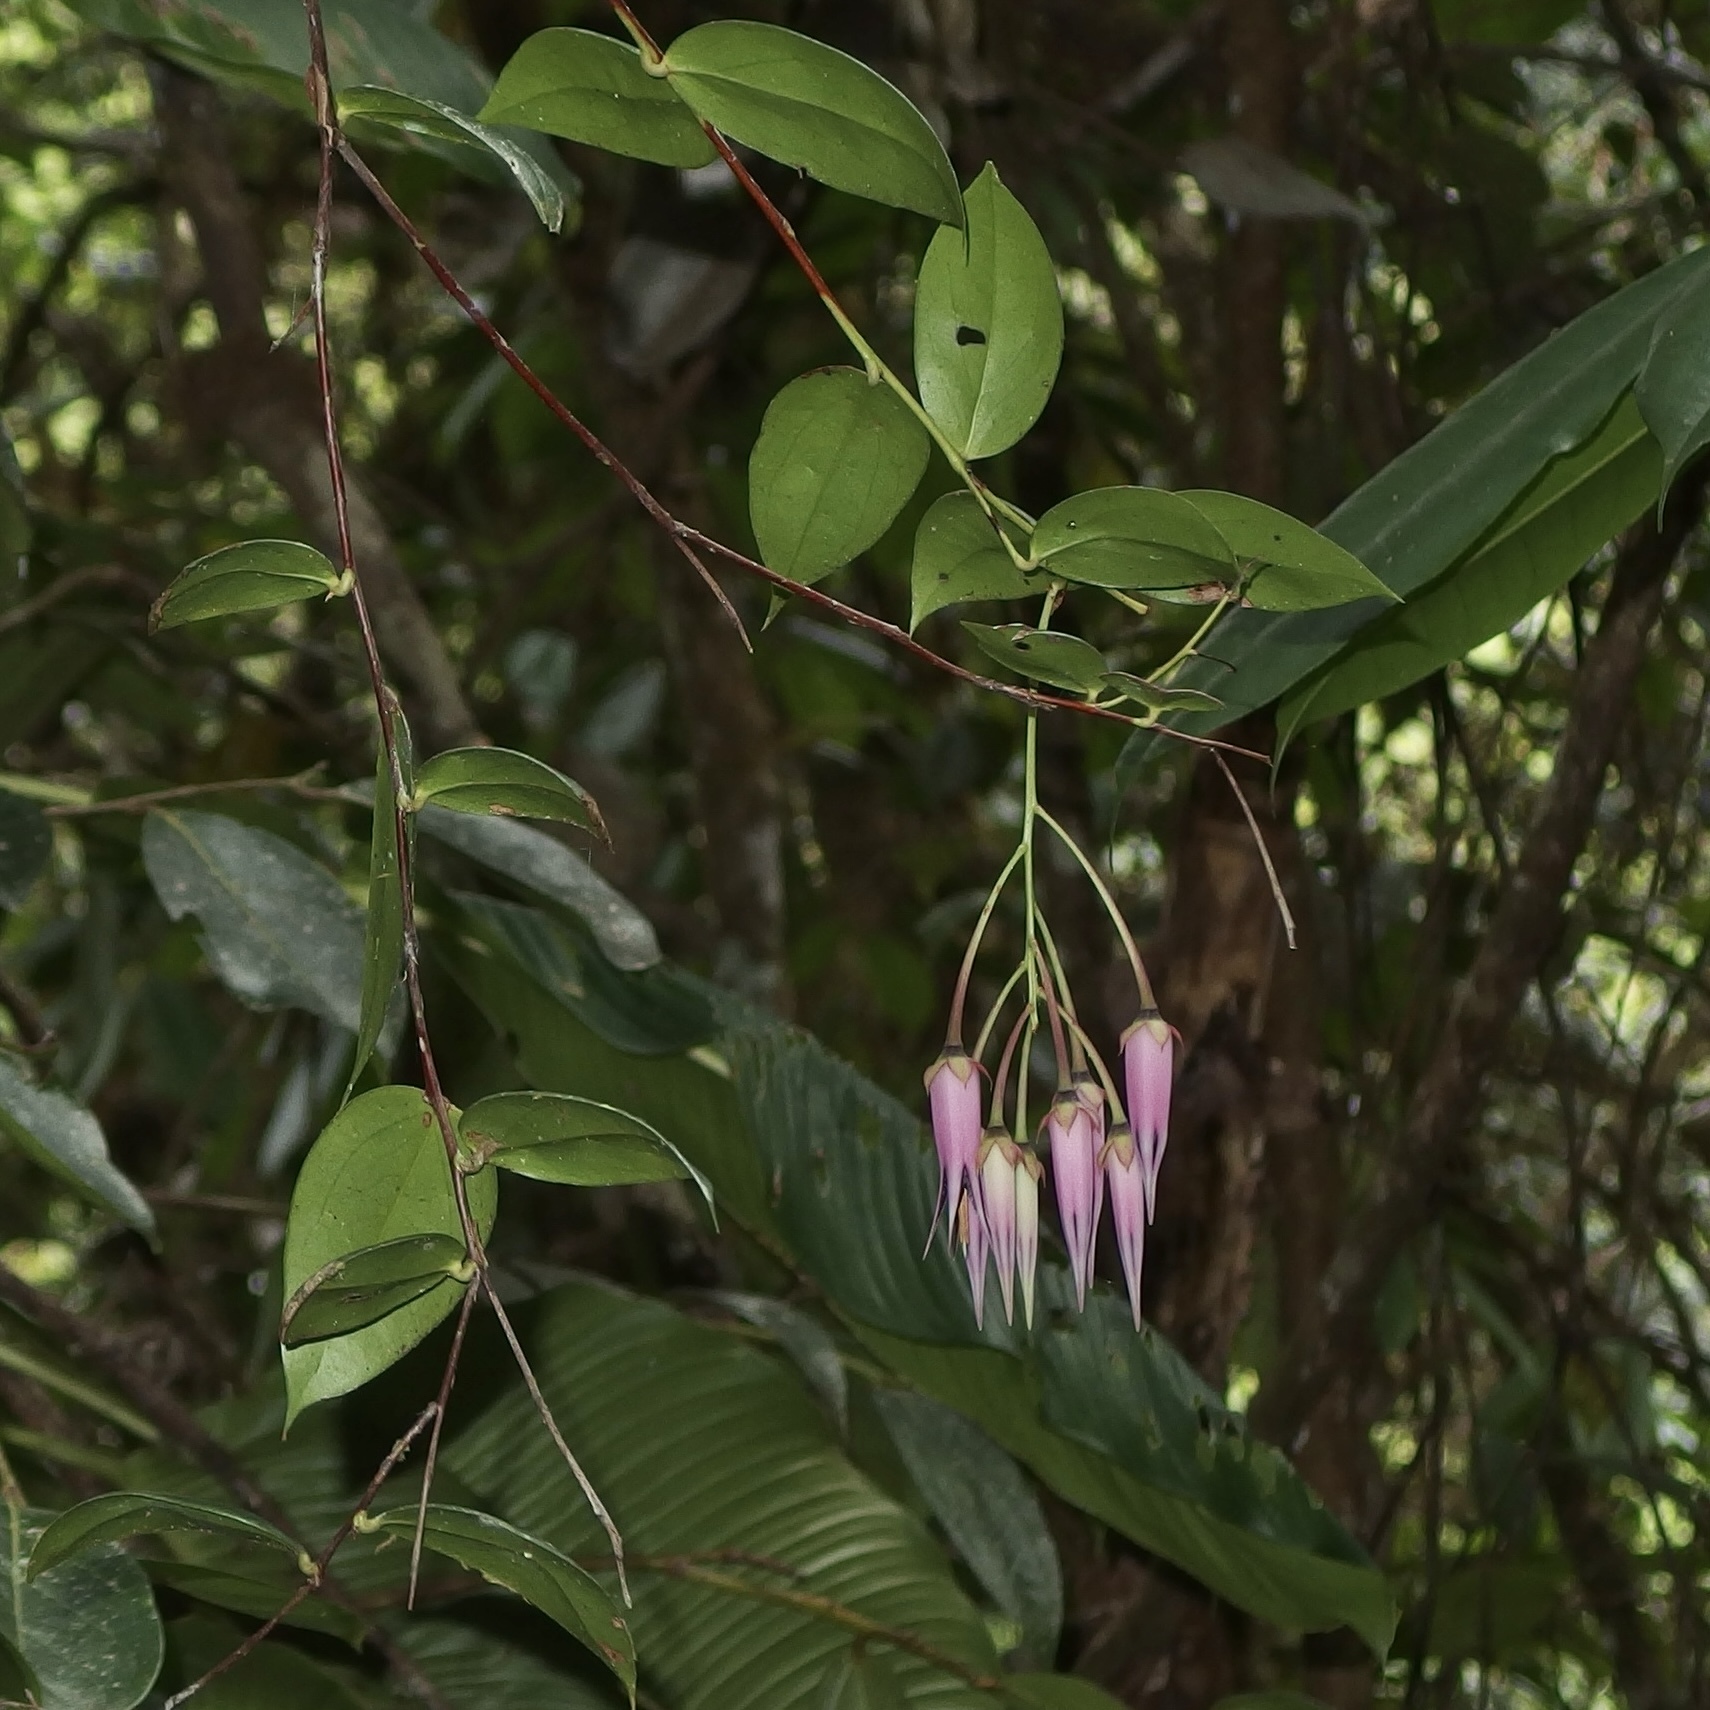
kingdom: Plantae
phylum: Tracheophyta
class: Magnoliopsida
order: Ericales
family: Ericaceae
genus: Ceratostema
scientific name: Ceratostema zamorana
